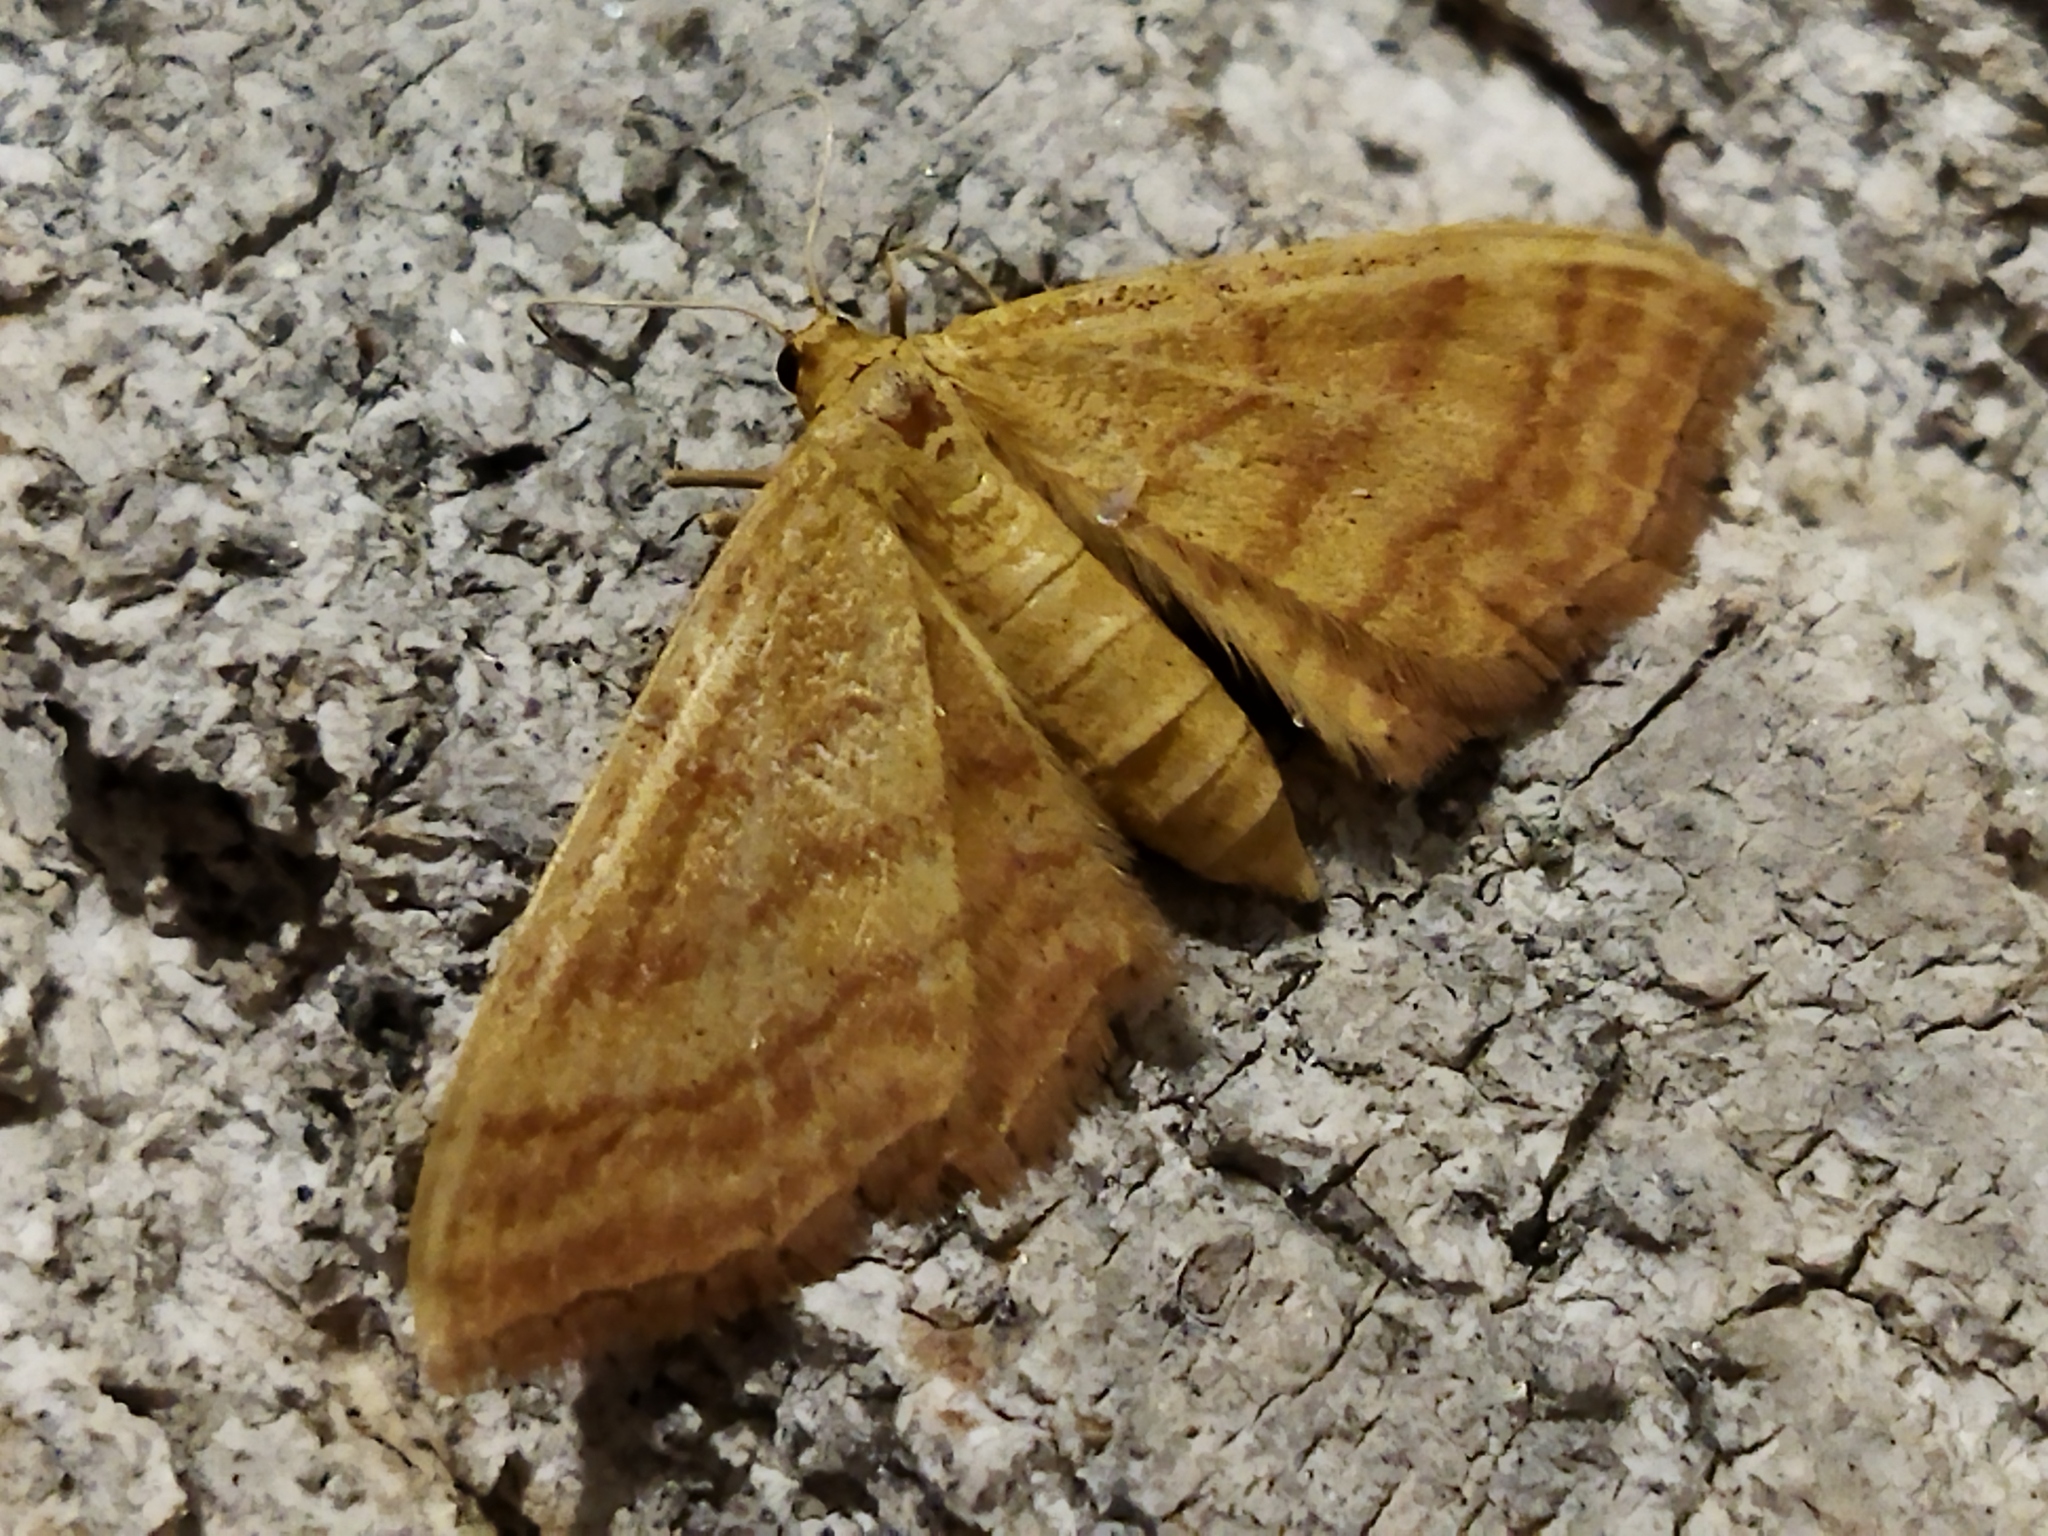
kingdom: Animalia
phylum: Arthropoda
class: Insecta
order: Lepidoptera
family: Geometridae
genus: Idaea
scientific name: Idaea ochrata
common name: Bright wave
